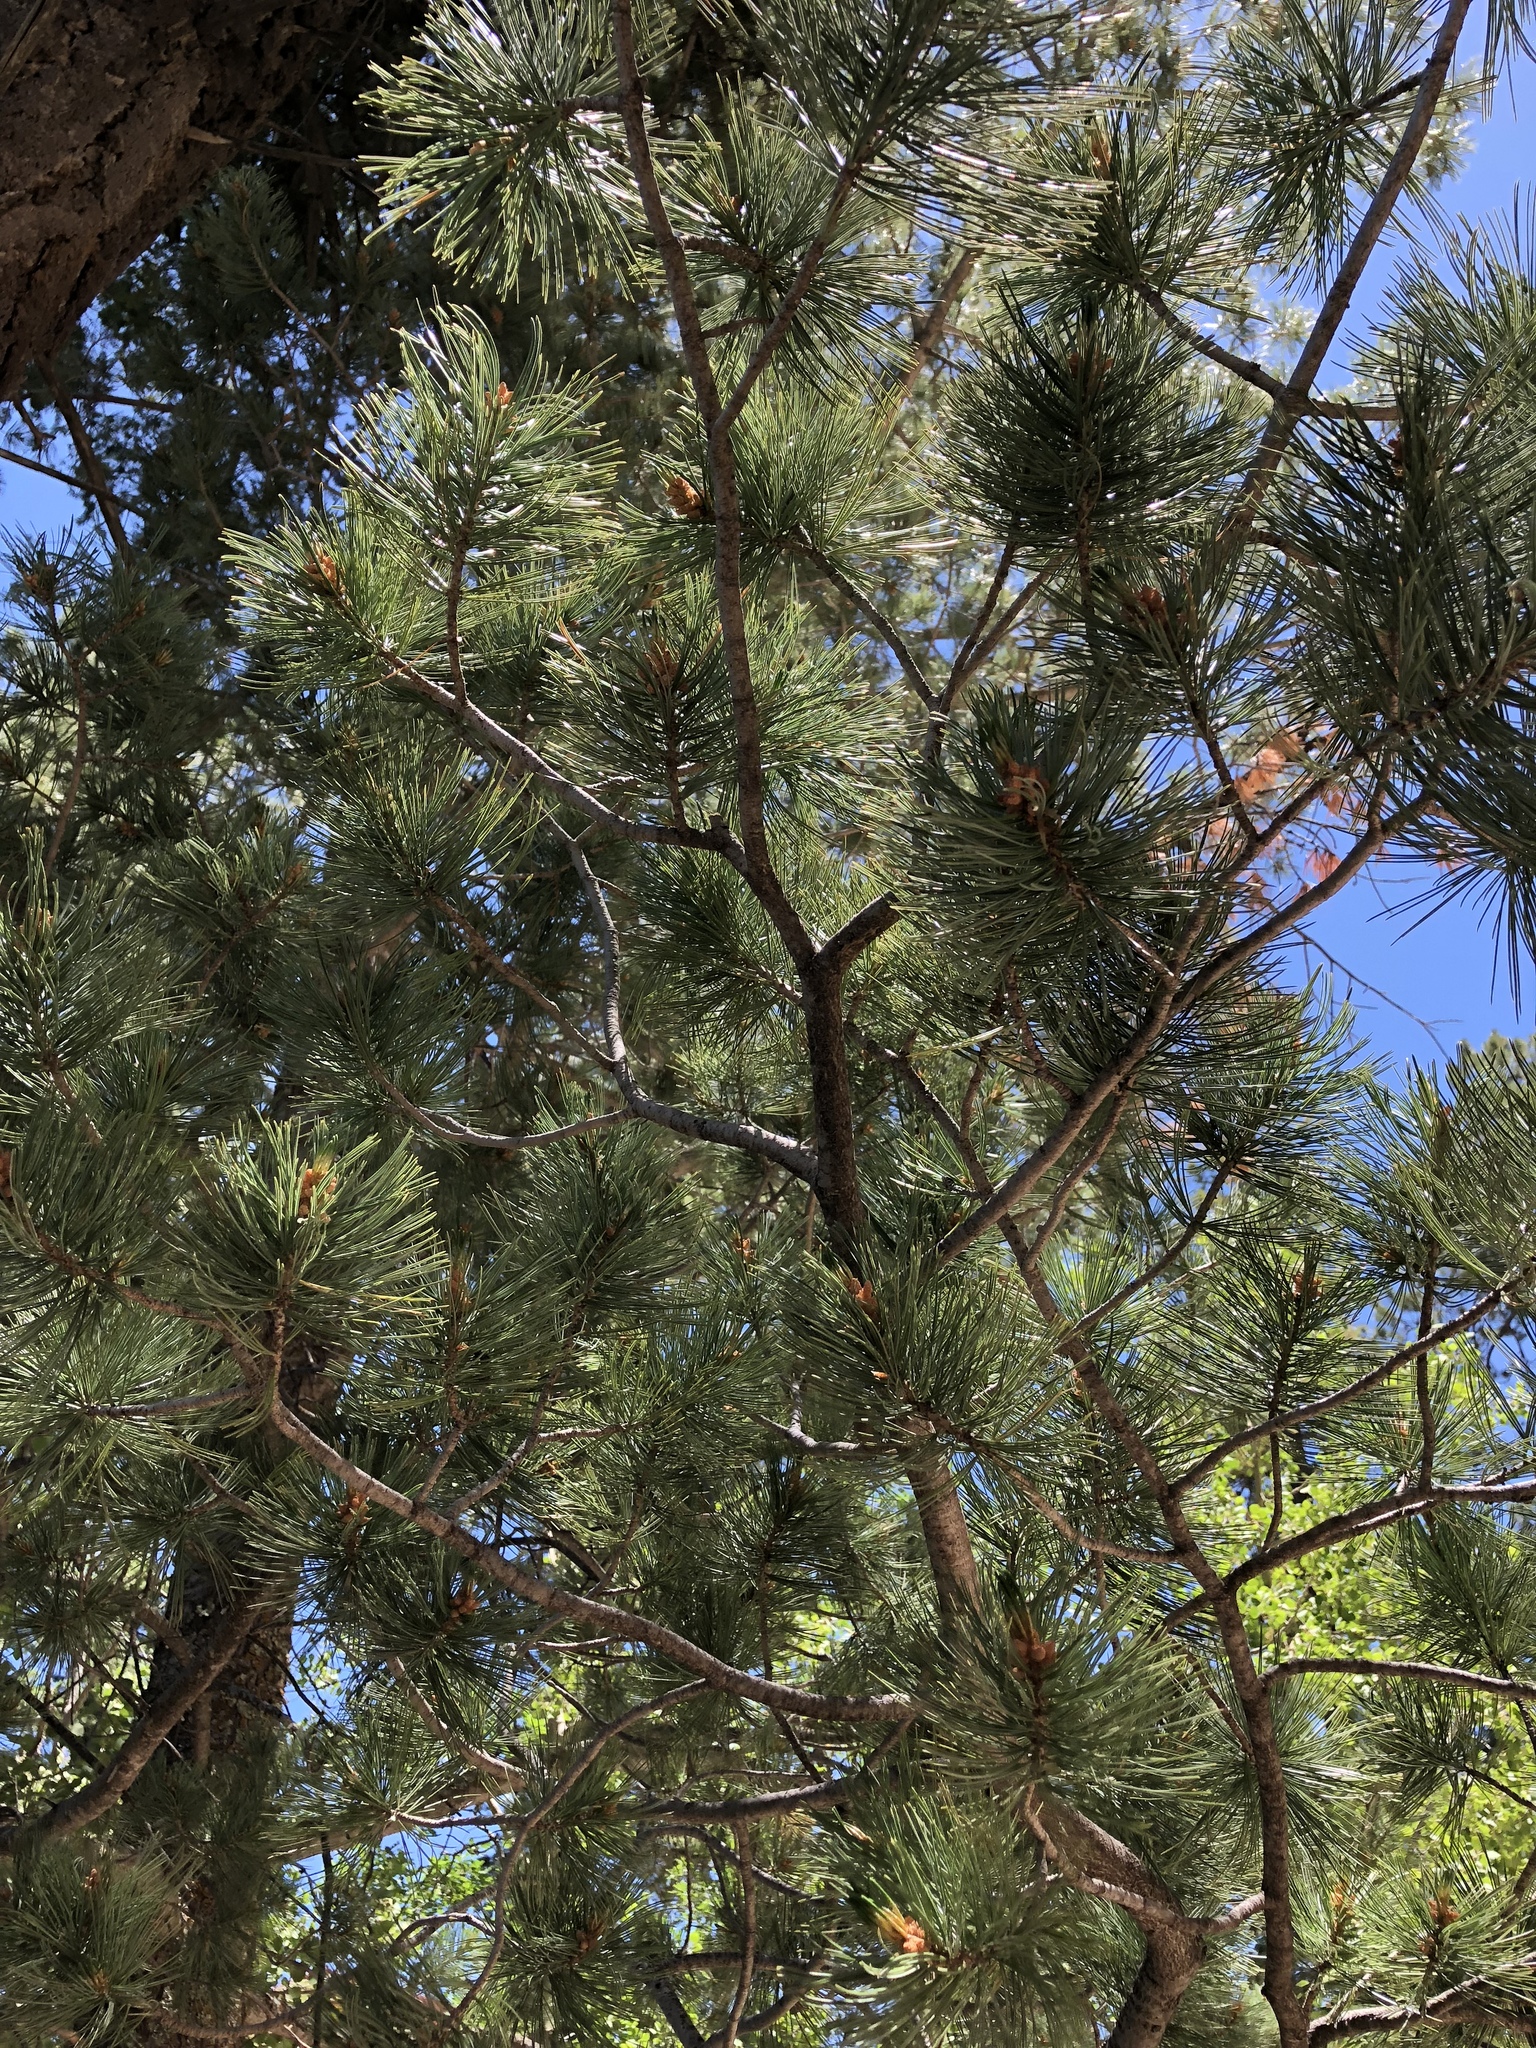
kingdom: Plantae
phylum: Tracheophyta
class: Pinopsida
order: Pinales
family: Pinaceae
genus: Pinus
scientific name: Pinus strobiformis
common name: Southwestern white pine
